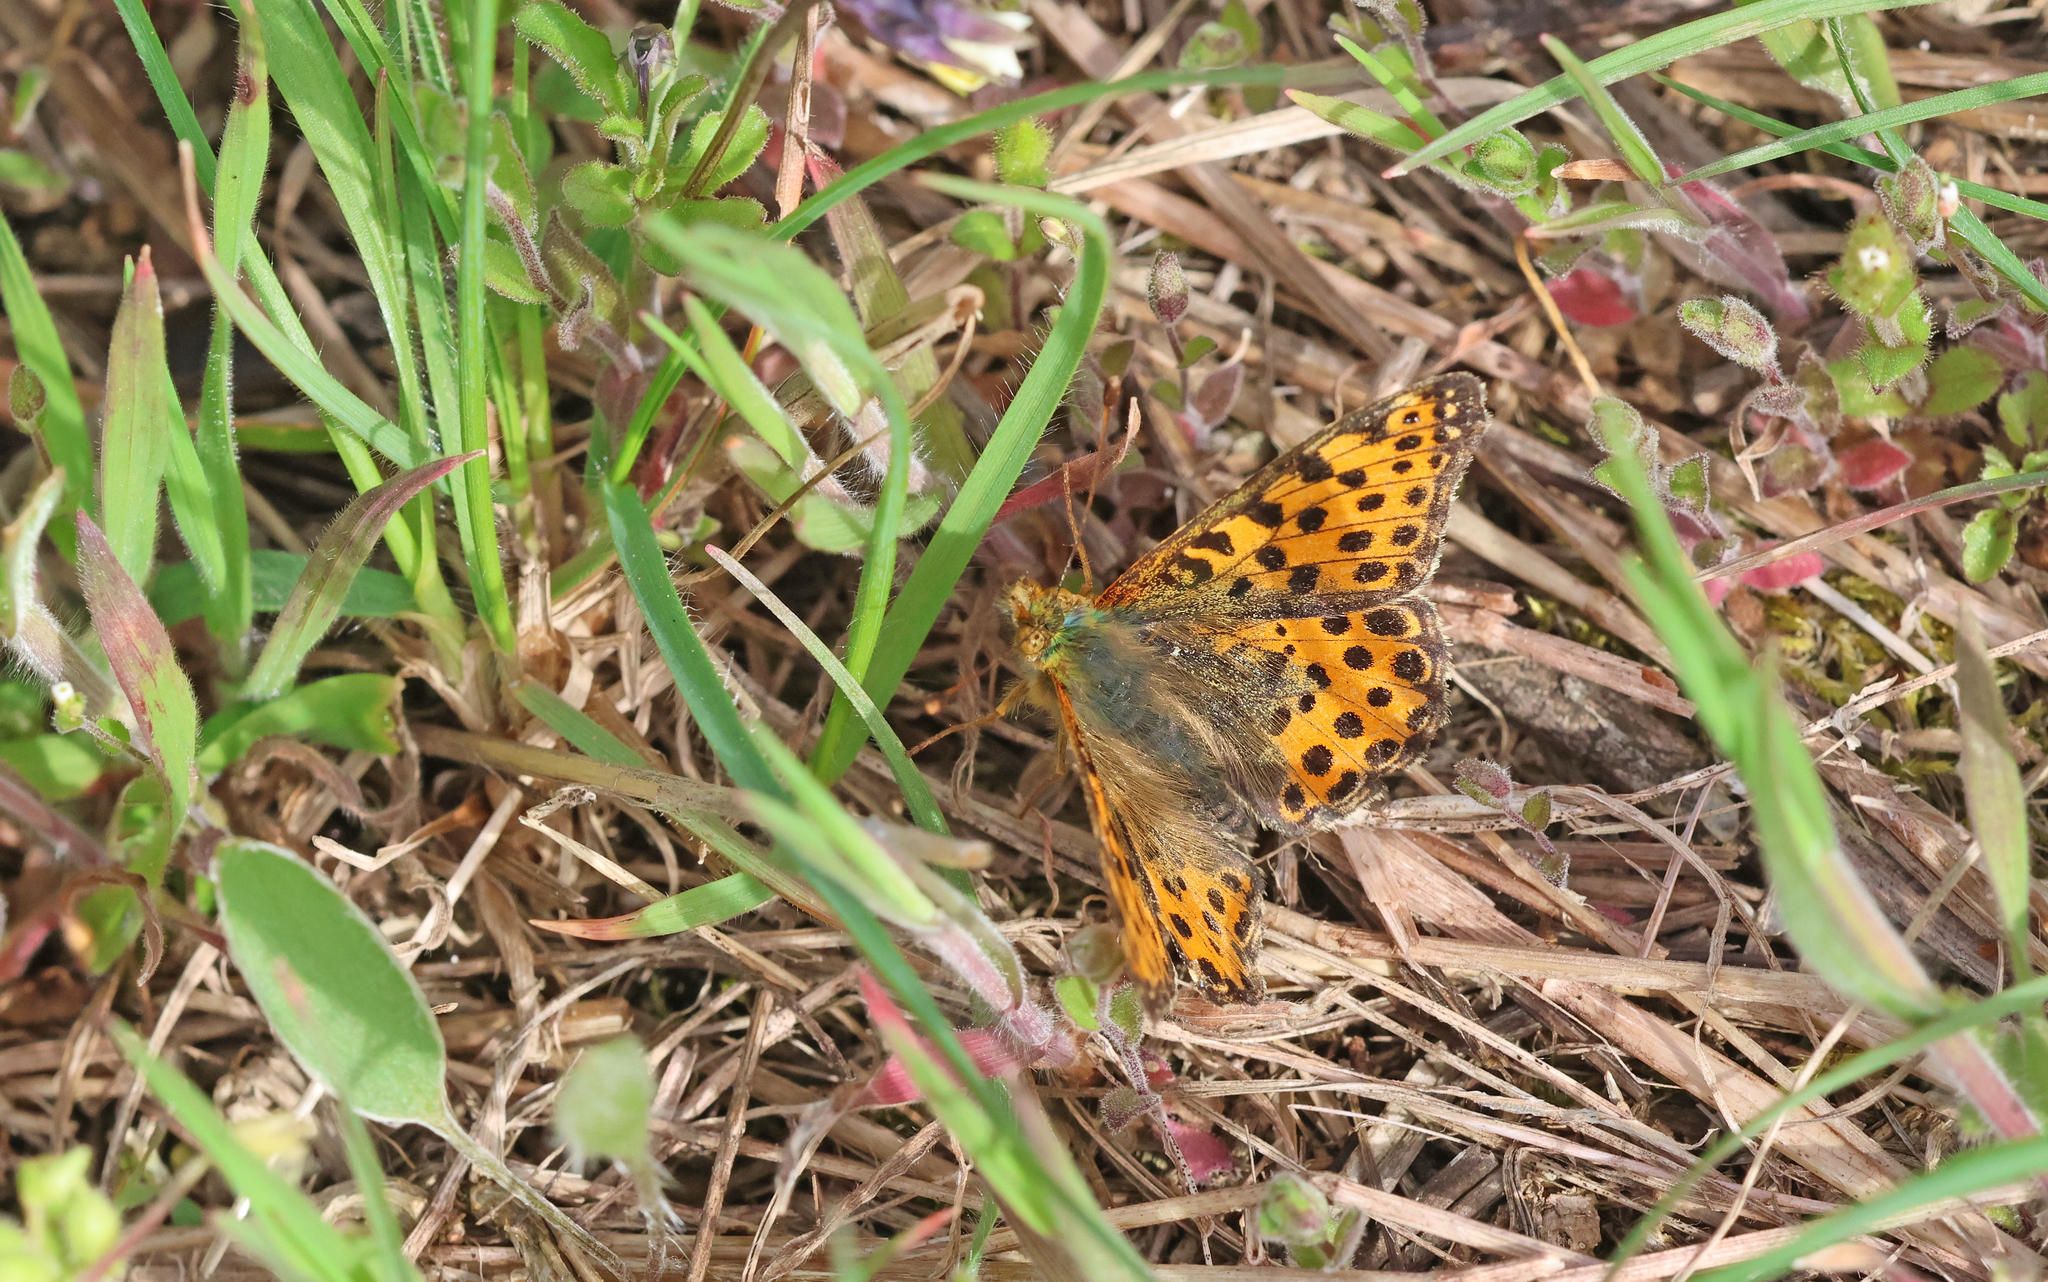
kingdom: Animalia
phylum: Arthropoda
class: Insecta
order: Lepidoptera
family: Nymphalidae
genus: Issoria
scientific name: Issoria lathonia
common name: Queen of spain fritillary
